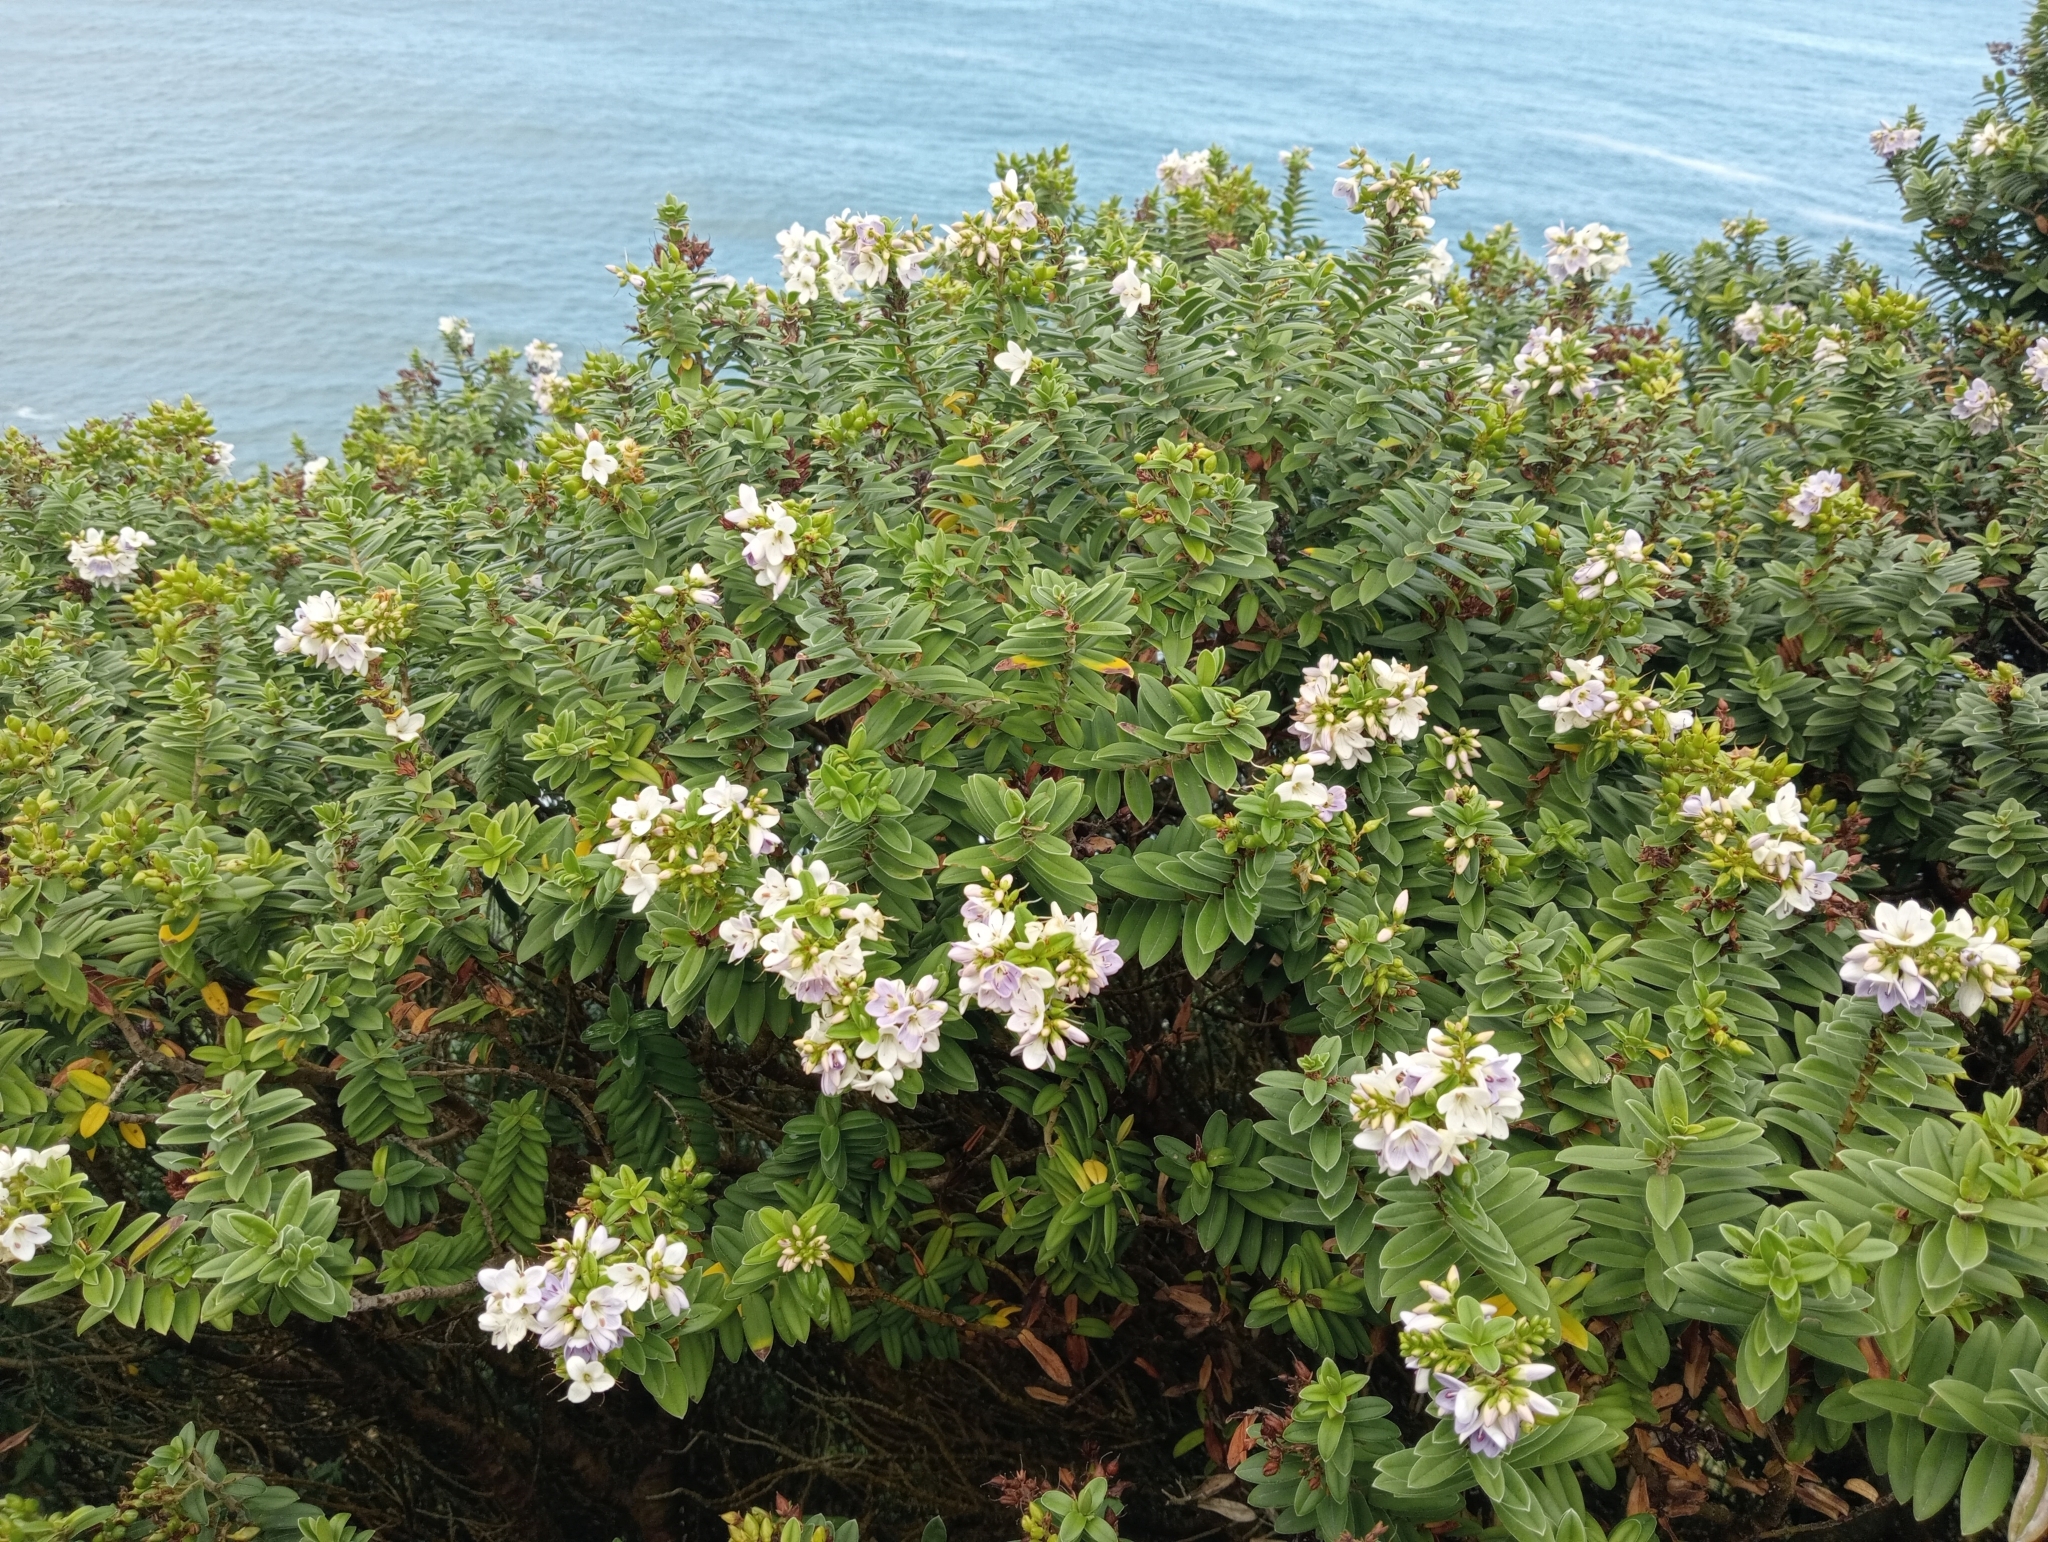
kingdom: Plantae
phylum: Tracheophyta
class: Magnoliopsida
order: Lamiales
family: Plantaginaceae
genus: Veronica
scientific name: Veronica elliptica
